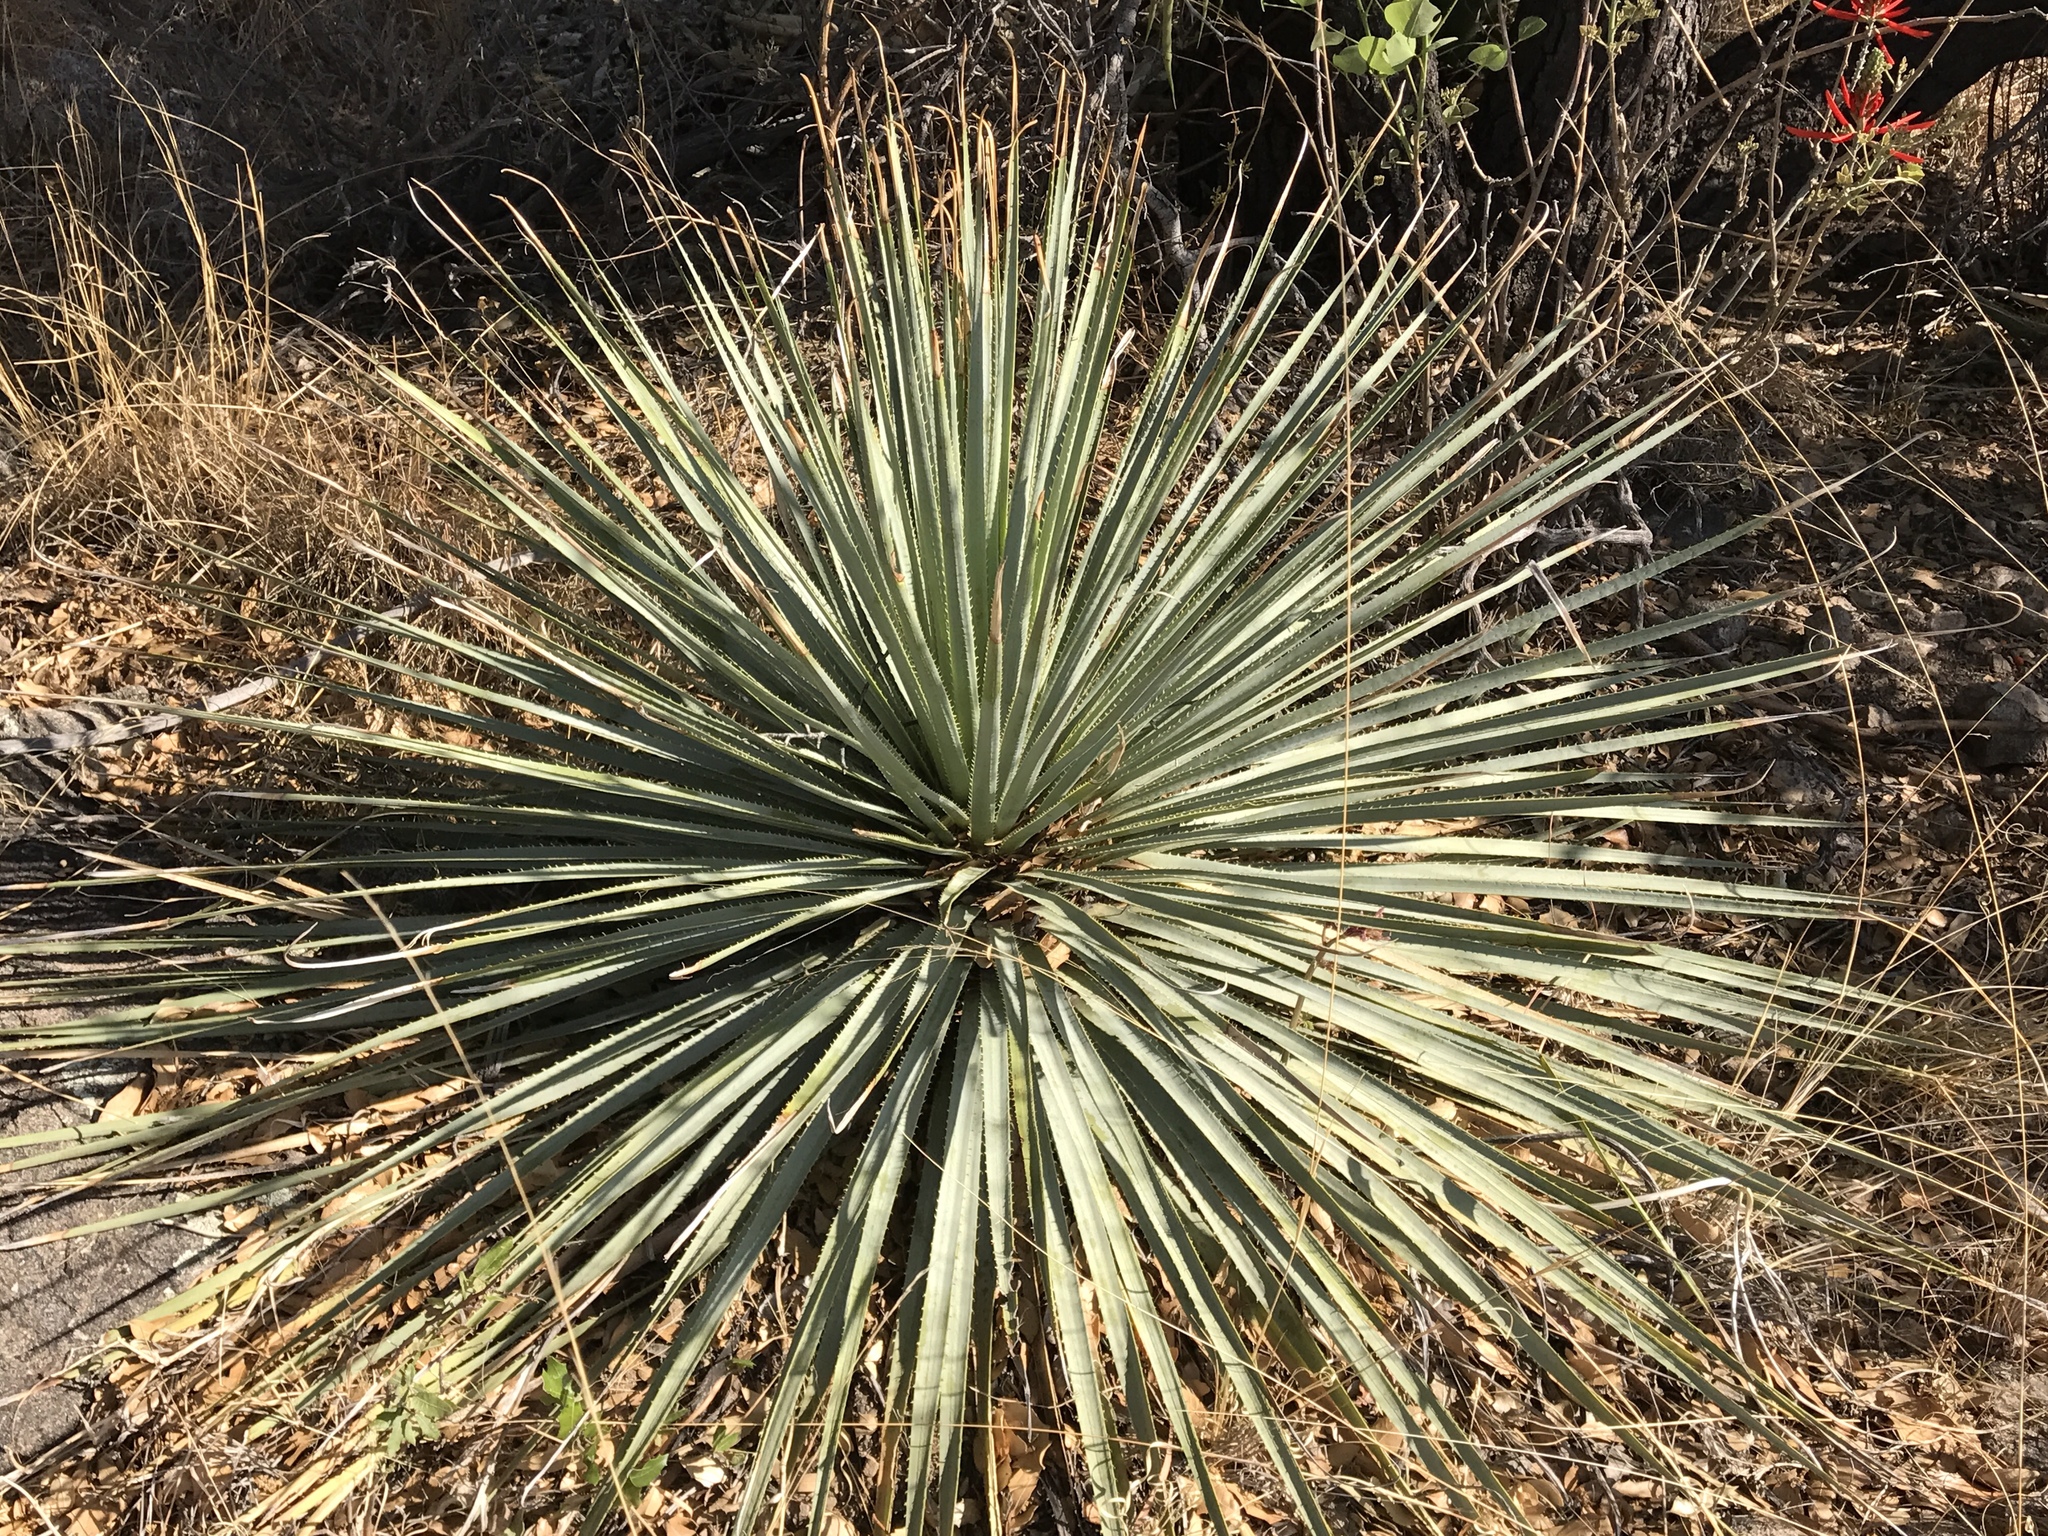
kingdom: Plantae
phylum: Tracheophyta
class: Liliopsida
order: Asparagales
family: Asparagaceae
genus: Dasylirion
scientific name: Dasylirion wheeleri
